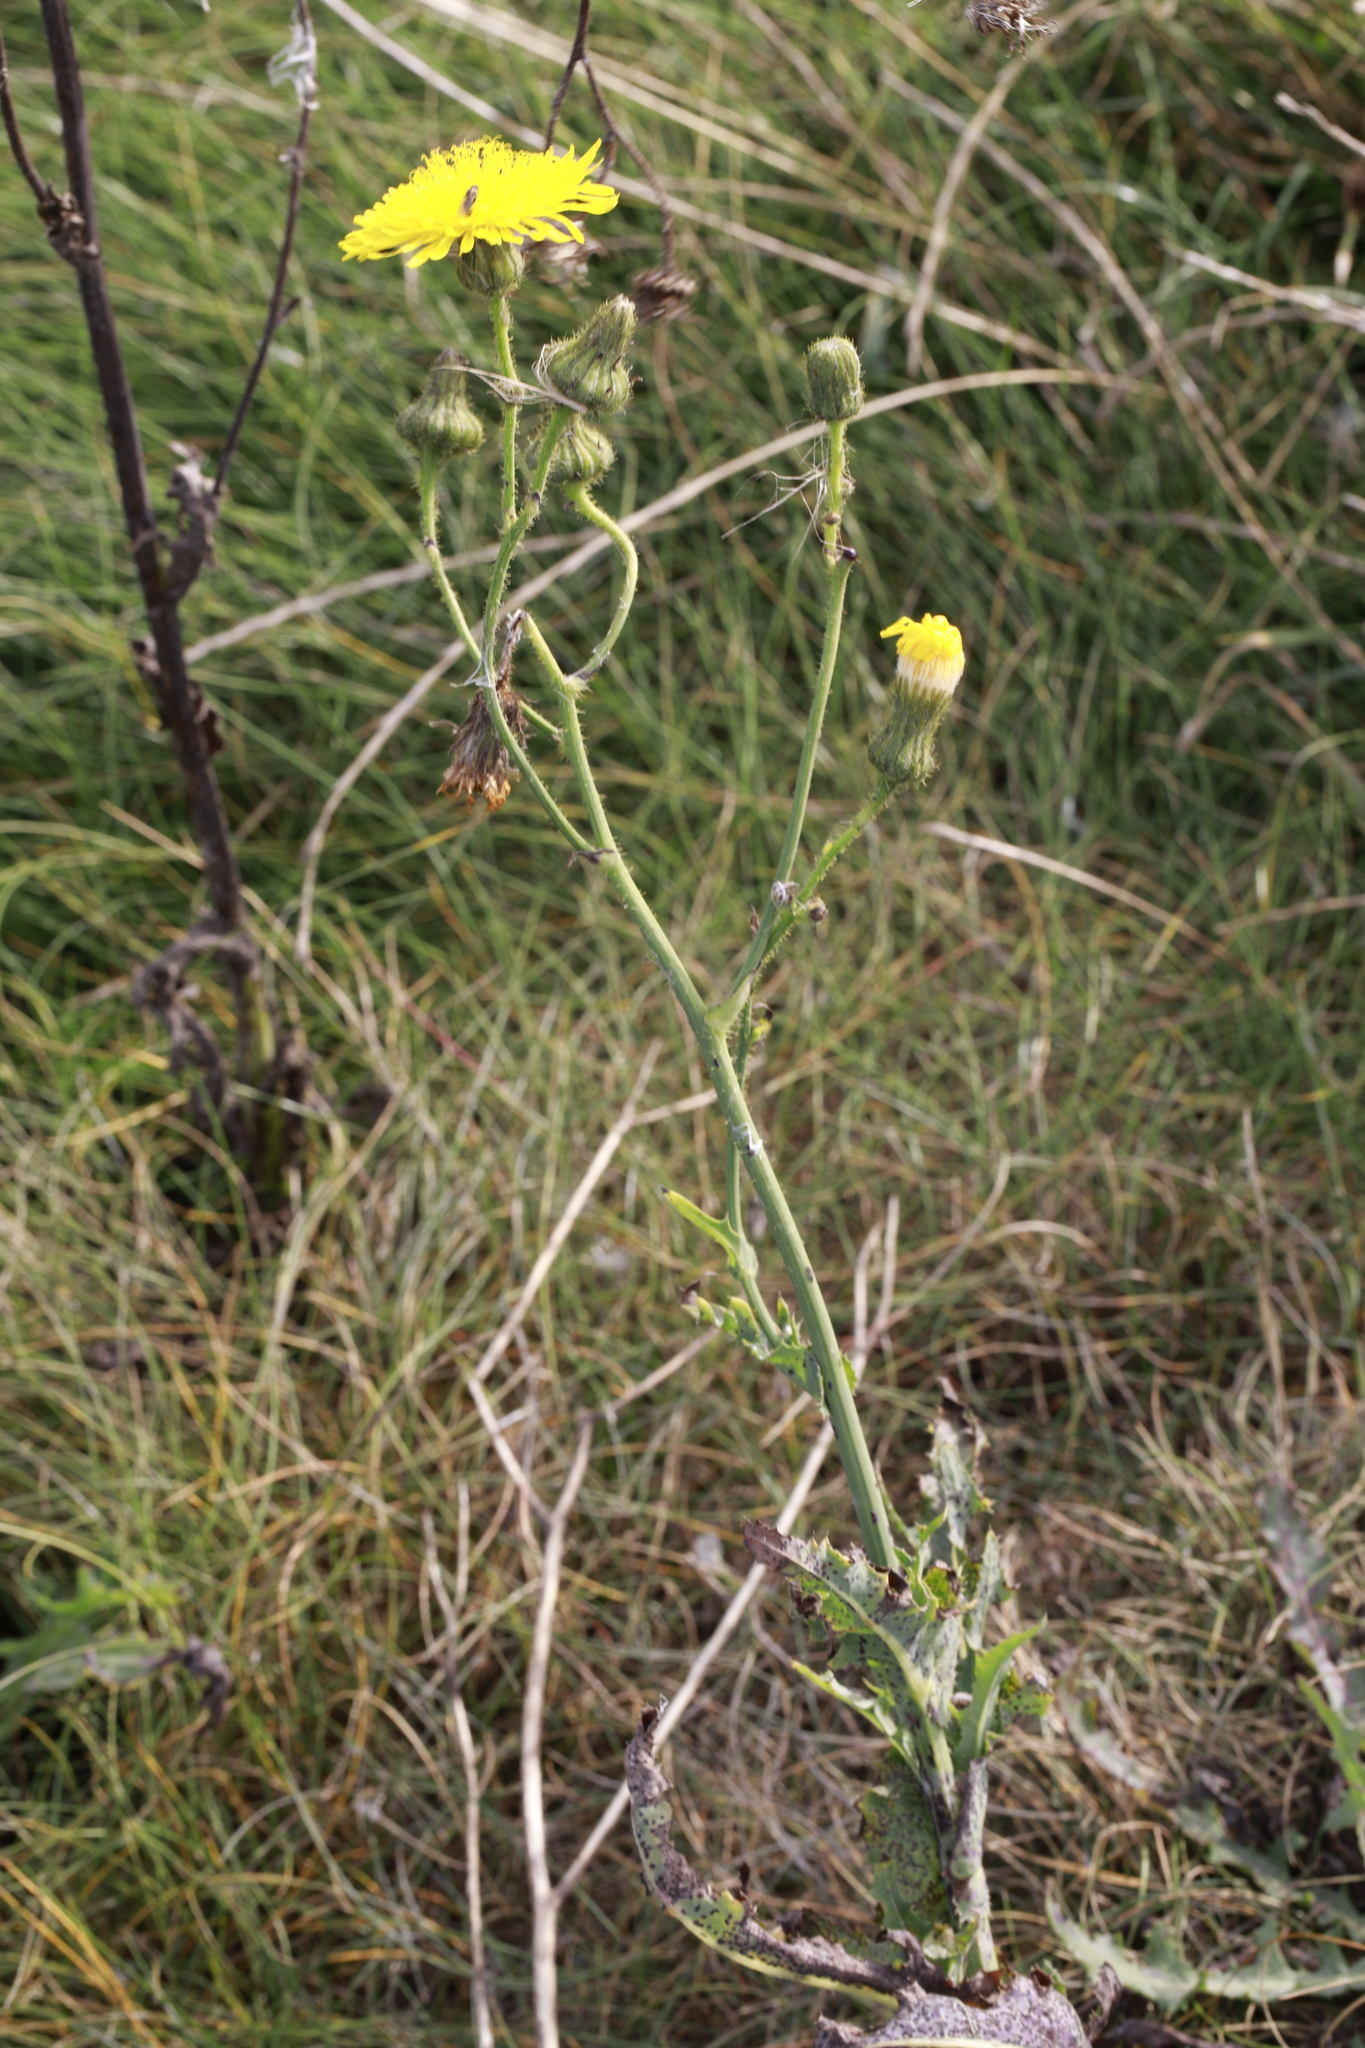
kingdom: Plantae
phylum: Tracheophyta
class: Magnoliopsida
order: Asterales
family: Asteraceae
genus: Sonchus
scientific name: Sonchus arvensis
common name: Perennial sow-thistle
